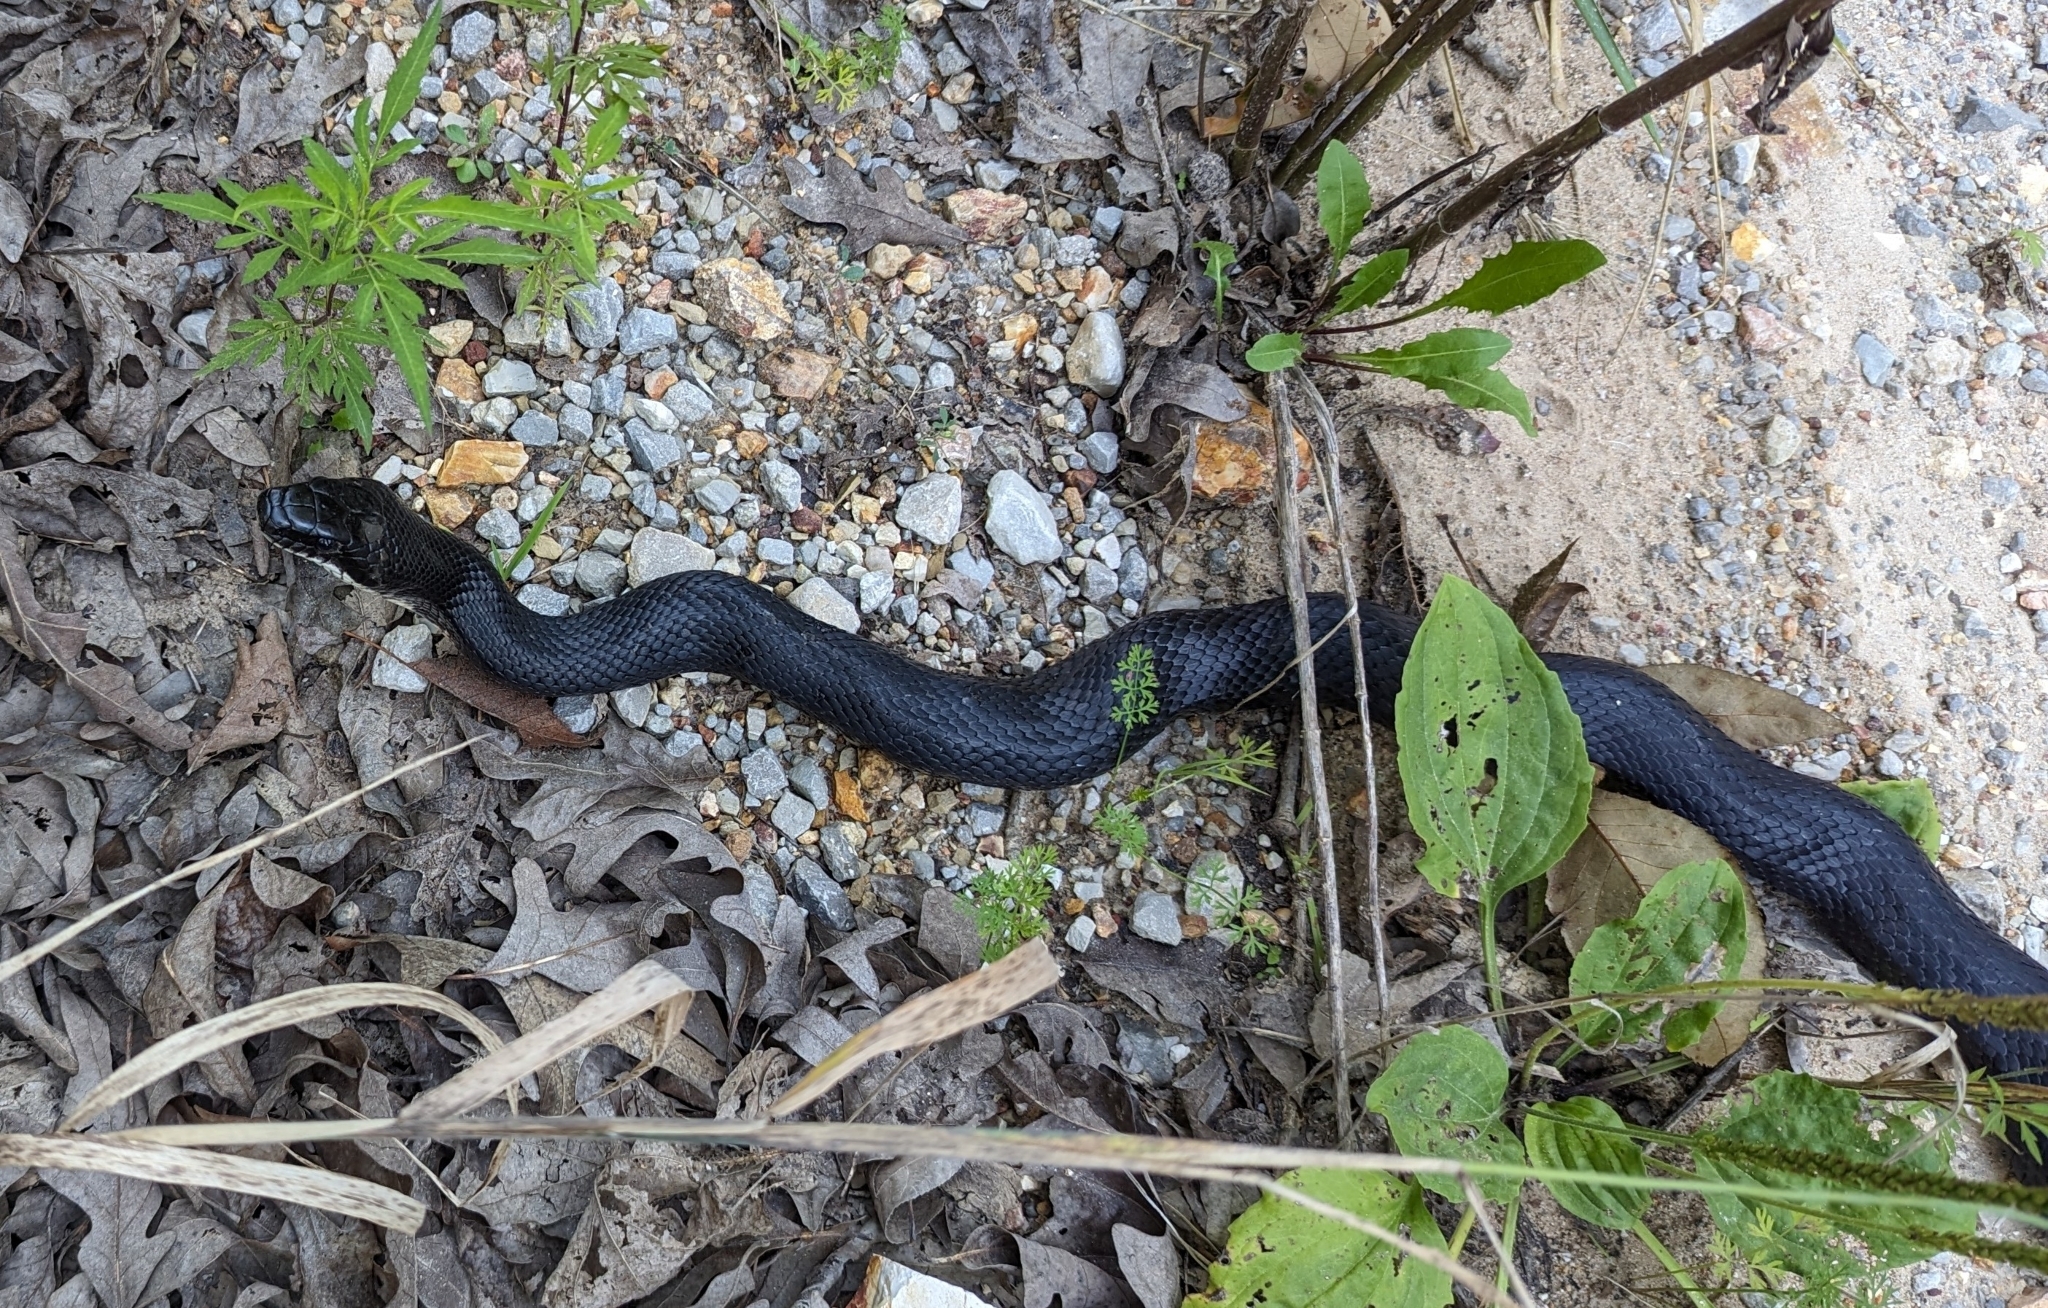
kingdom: Animalia
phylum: Chordata
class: Squamata
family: Colubridae
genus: Pantherophis
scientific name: Pantherophis obsoletus
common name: Black rat snake
